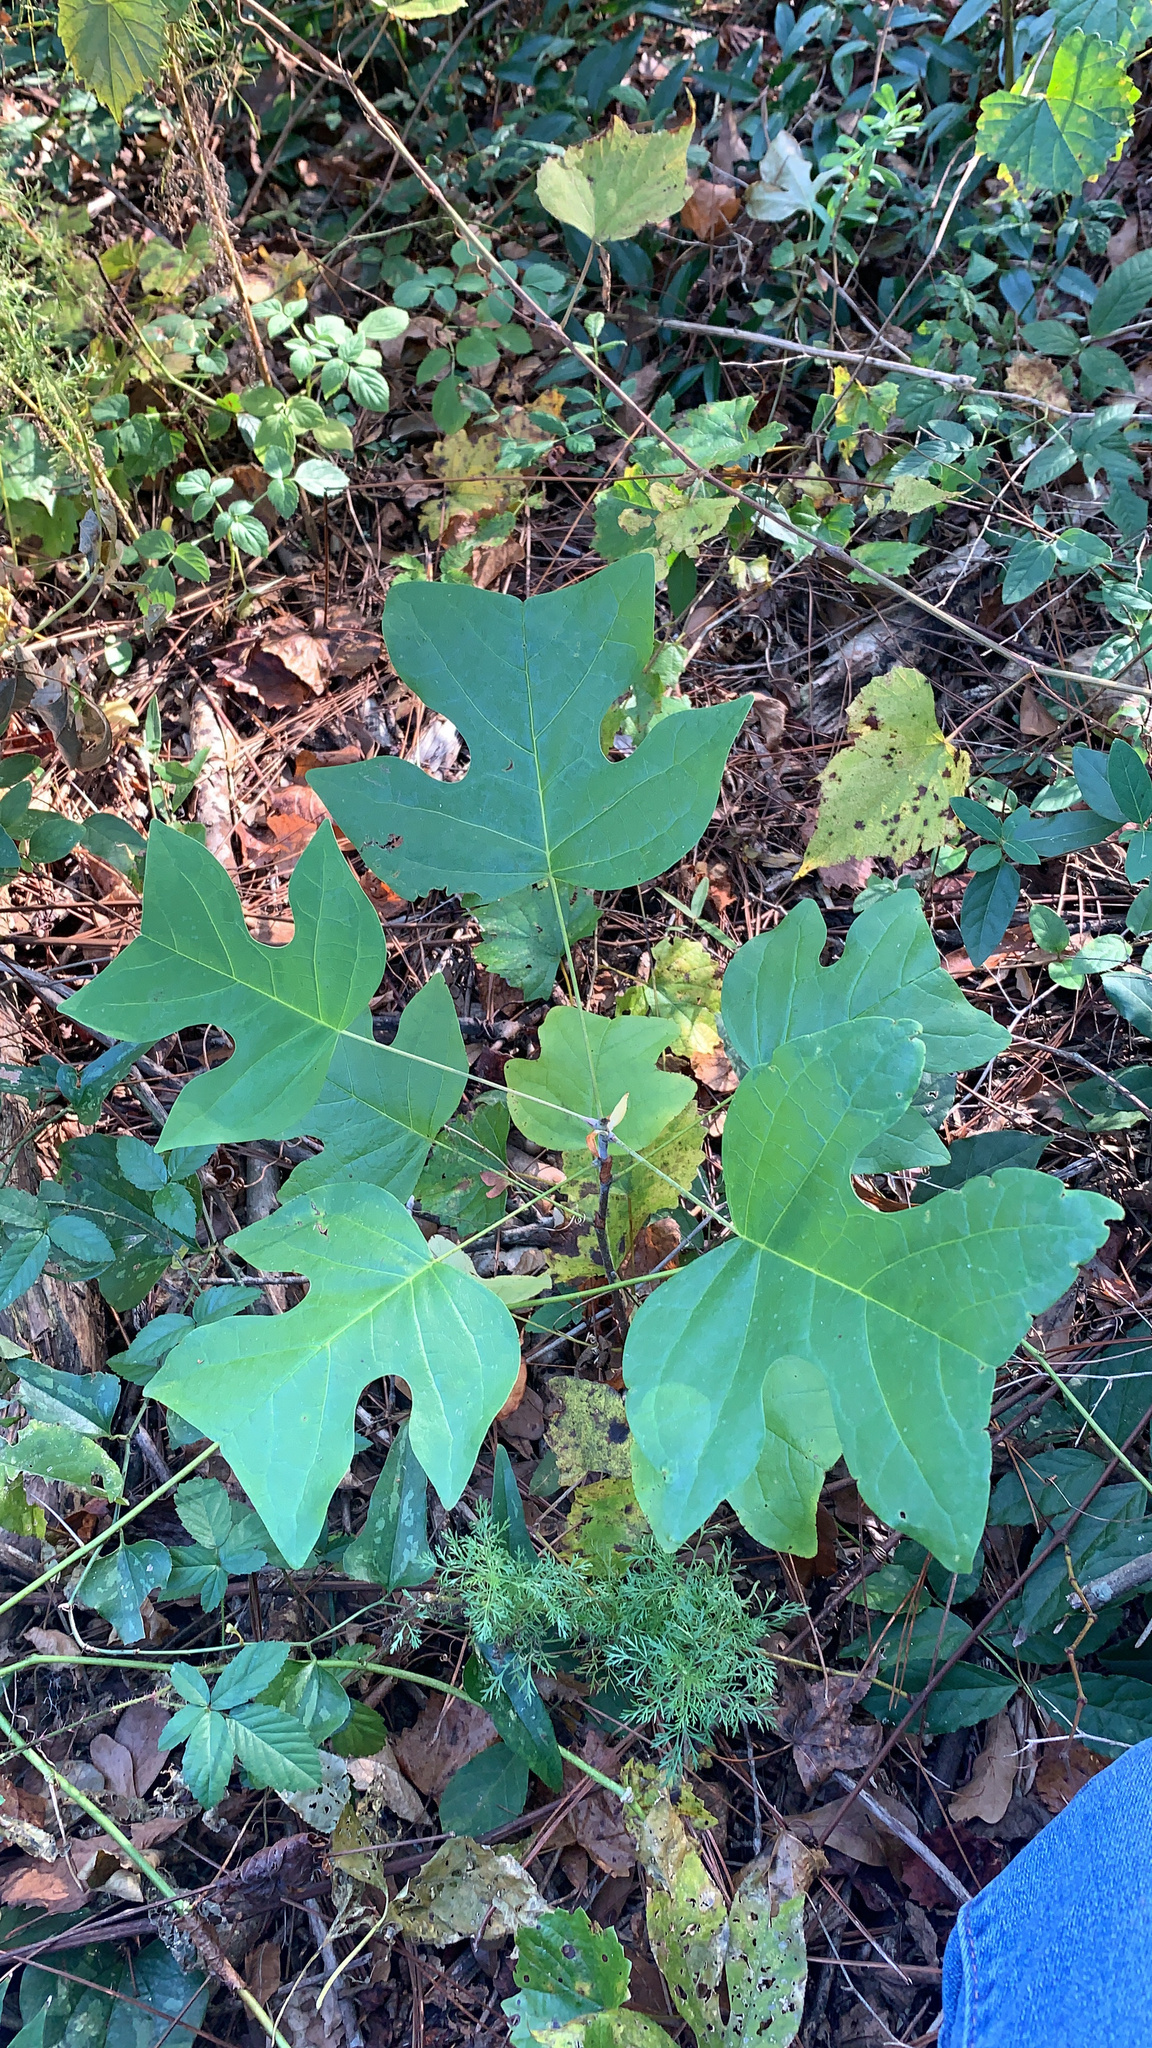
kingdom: Plantae
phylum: Tracheophyta
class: Magnoliopsida
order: Magnoliales
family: Magnoliaceae
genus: Liriodendron
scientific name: Liriodendron tulipifera
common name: Tulip tree
